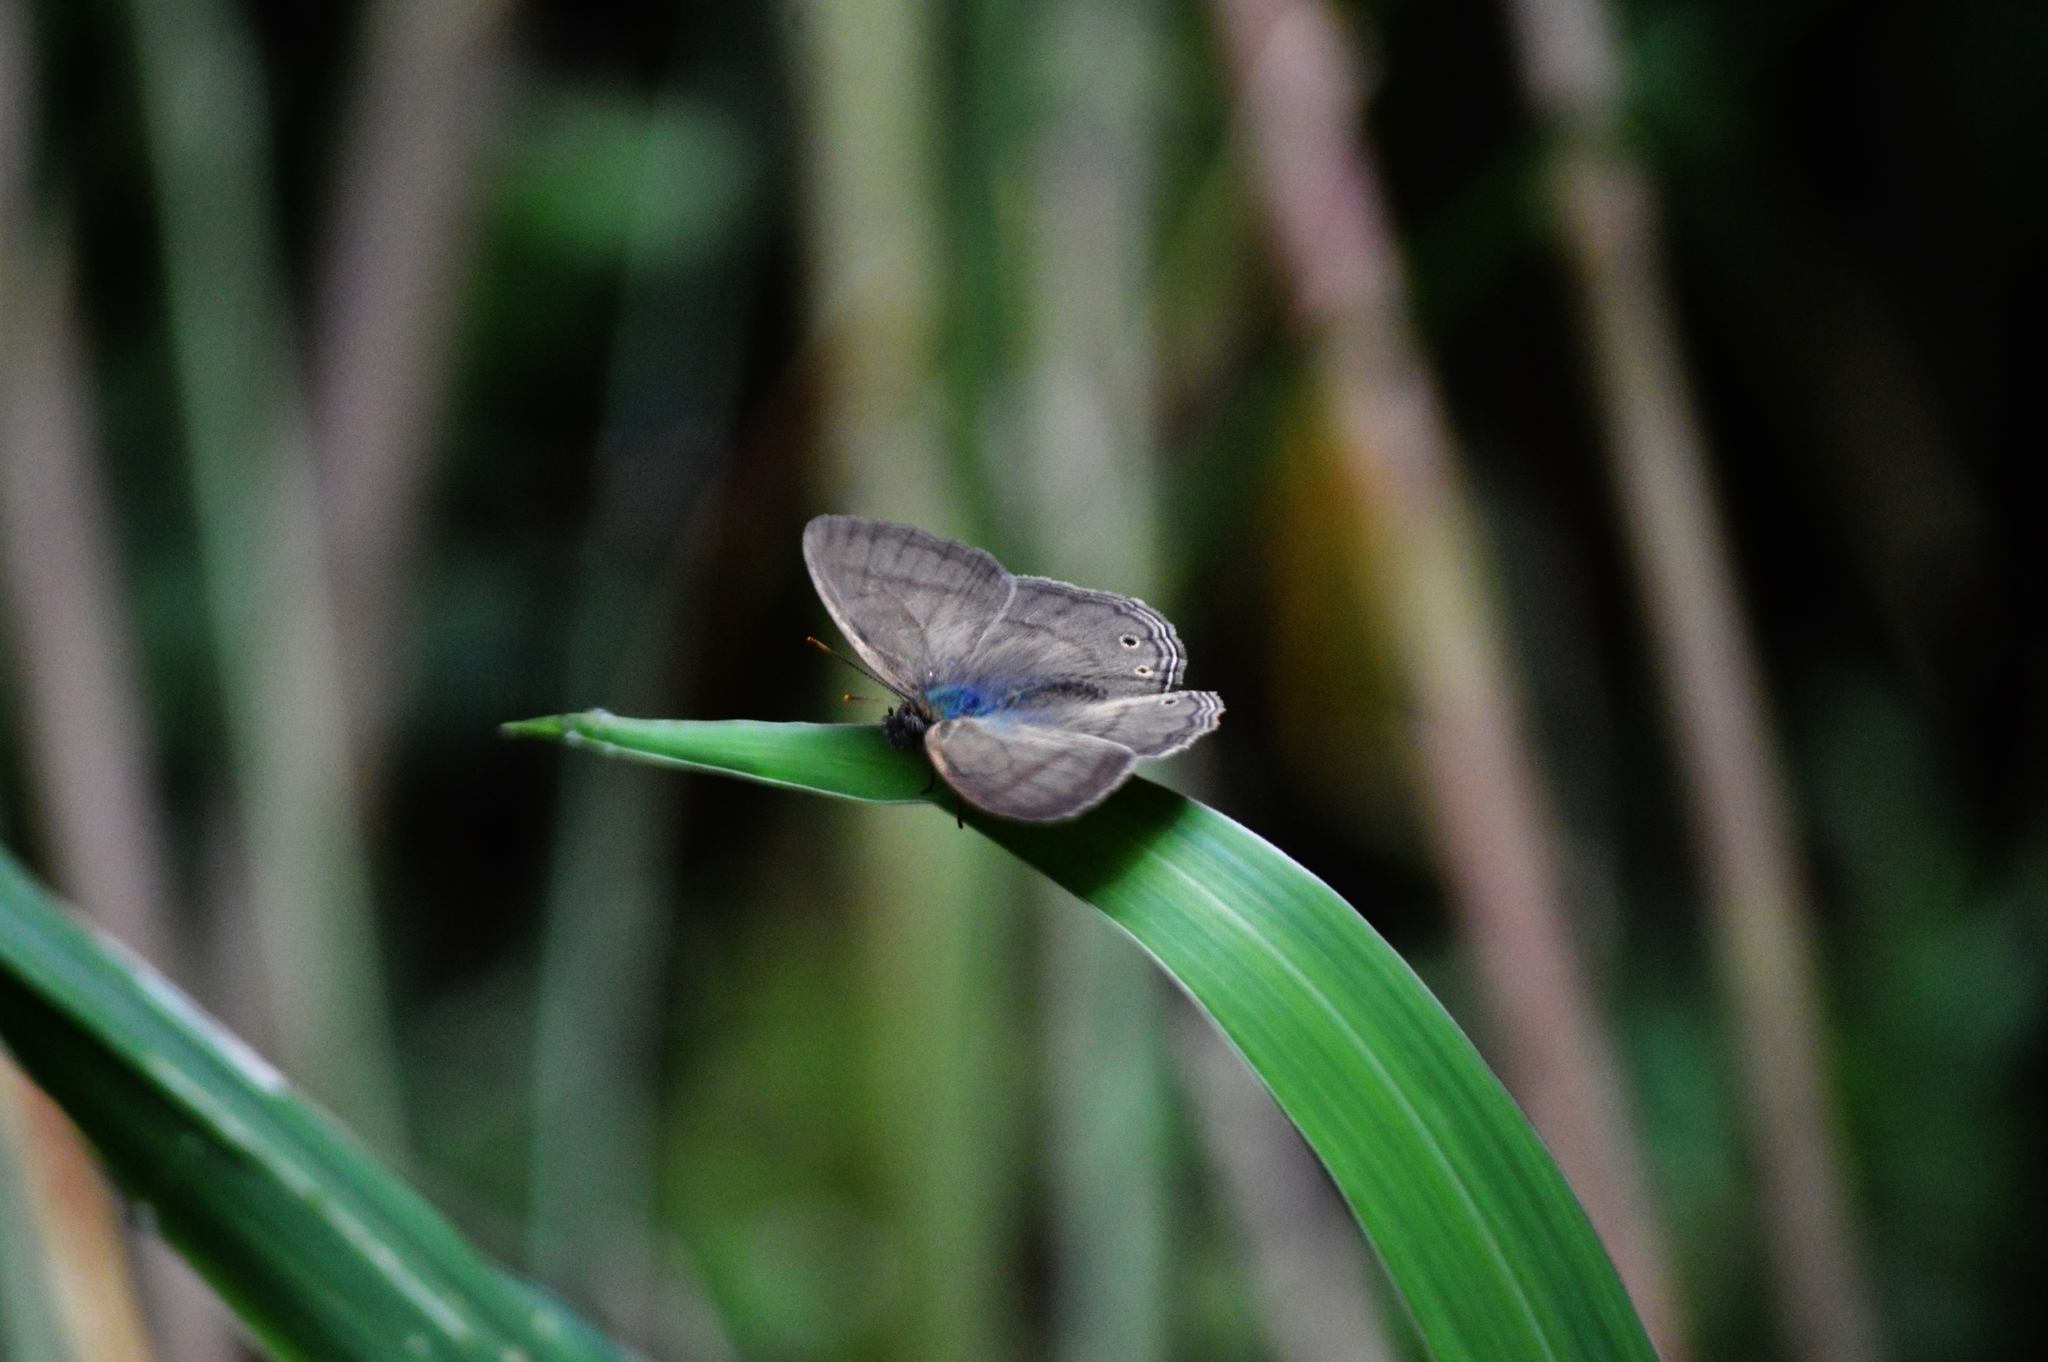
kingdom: Animalia
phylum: Arthropoda
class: Insecta
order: Lepidoptera
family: Nymphalidae
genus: Paryphthimoides
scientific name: Paryphthimoides poltys
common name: Poltys satyr
